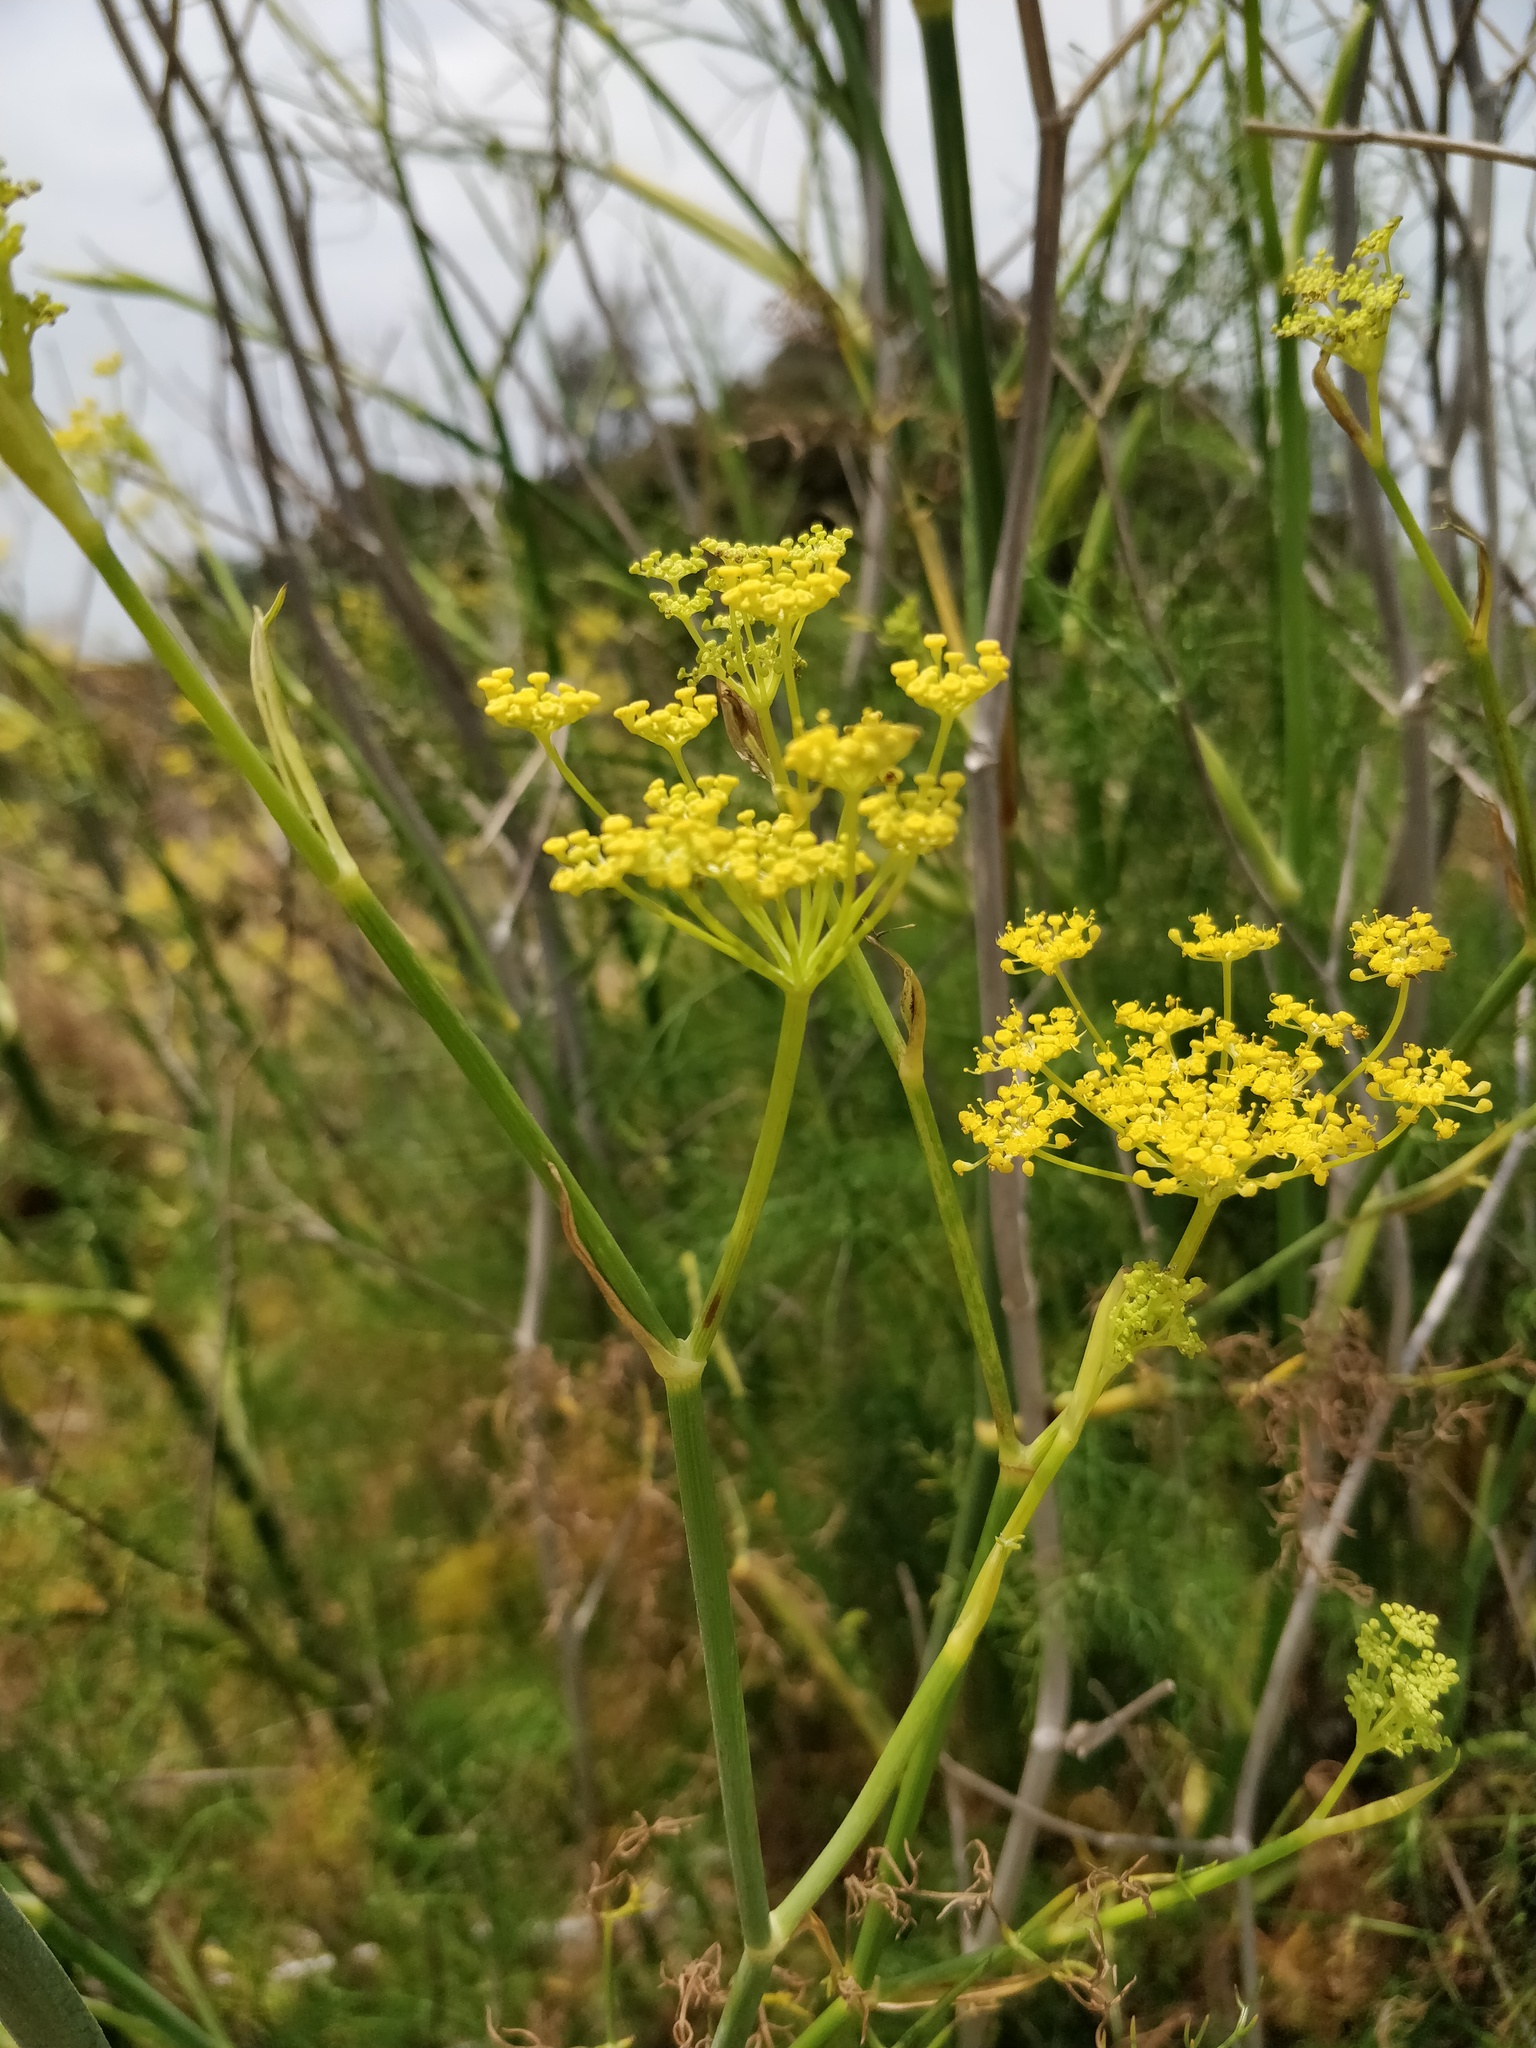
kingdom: Plantae
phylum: Tracheophyta
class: Magnoliopsida
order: Apiales
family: Apiaceae
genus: Foeniculum
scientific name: Foeniculum vulgare
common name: Fennel
